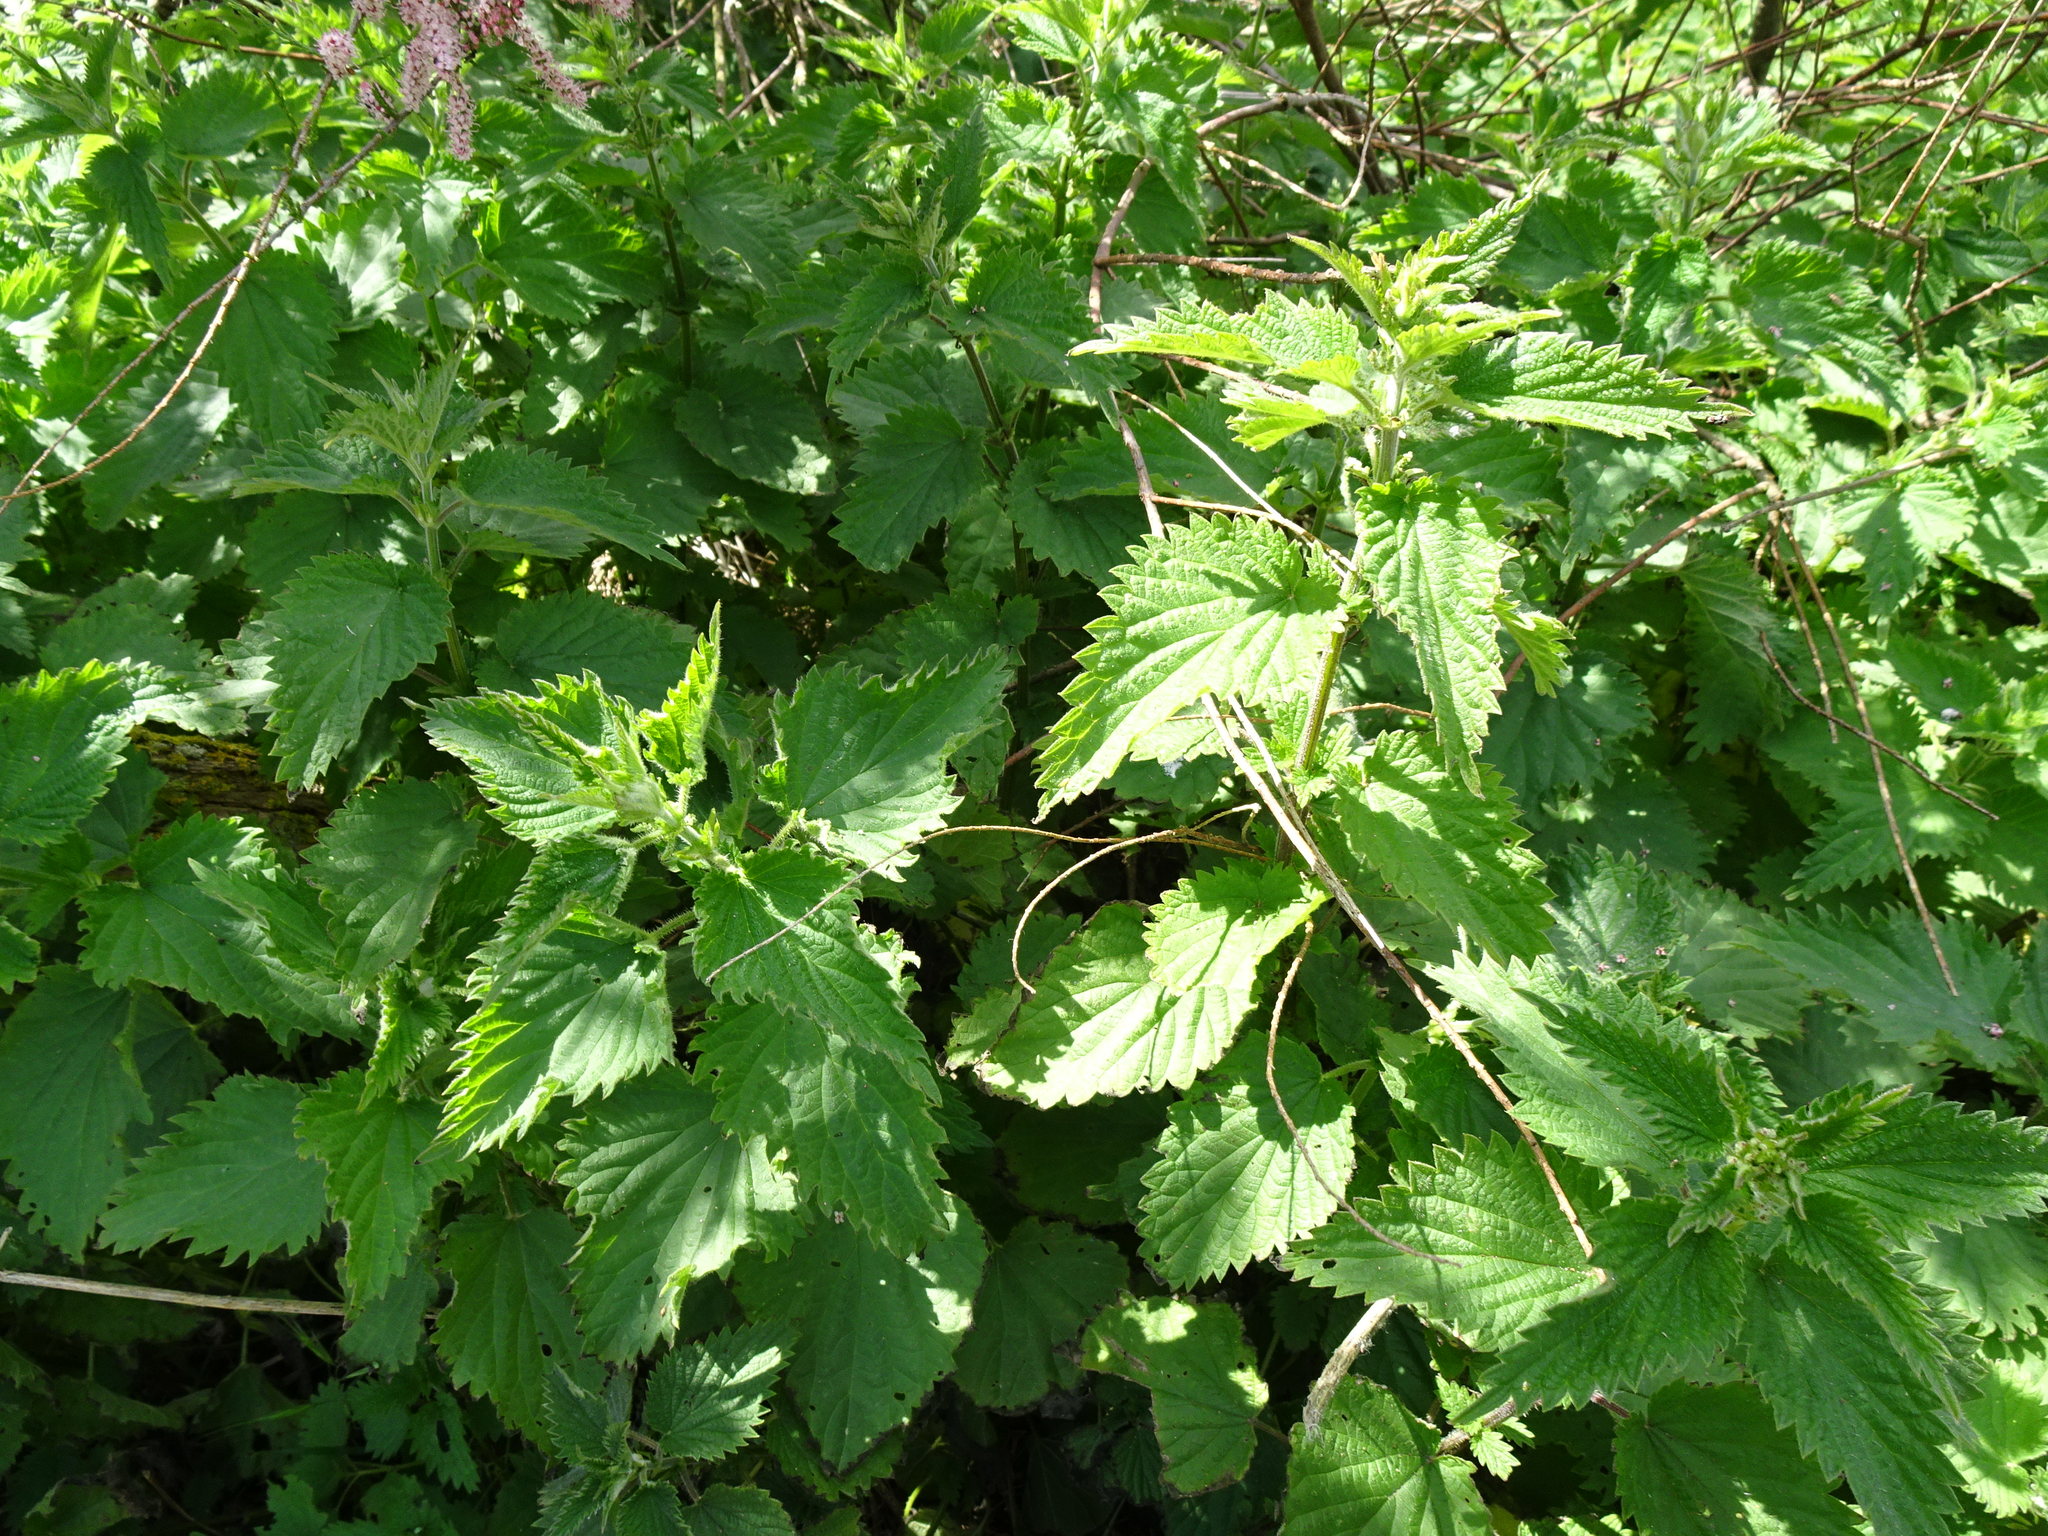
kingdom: Plantae
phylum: Tracheophyta
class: Magnoliopsida
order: Rosales
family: Urticaceae
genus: Urtica
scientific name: Urtica dioica
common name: Common nettle
